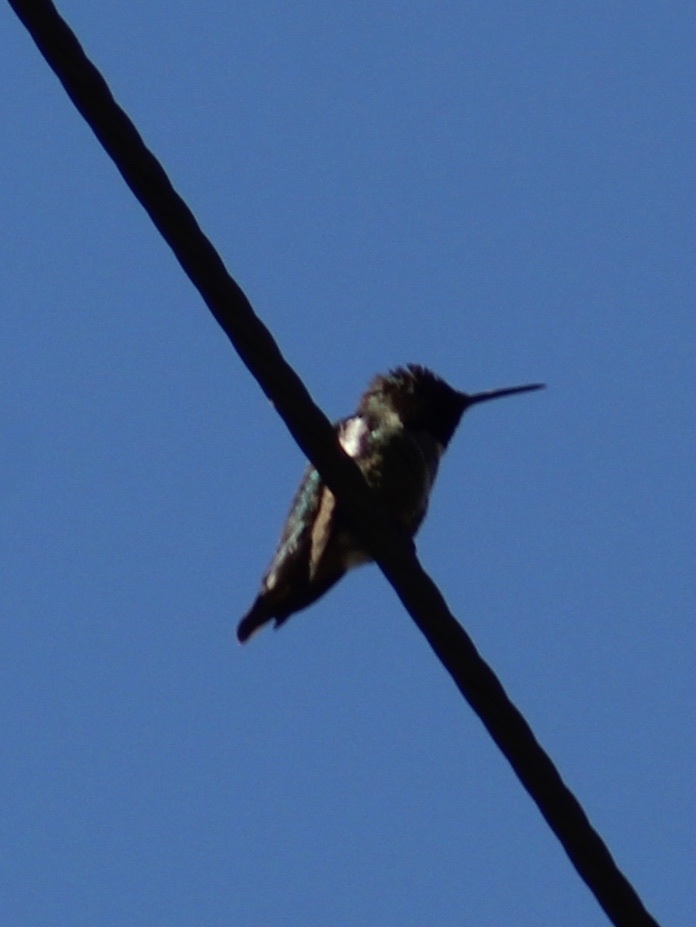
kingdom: Animalia
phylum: Chordata
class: Aves
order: Apodiformes
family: Trochilidae
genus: Calypte
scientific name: Calypte anna
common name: Anna's hummingbird
